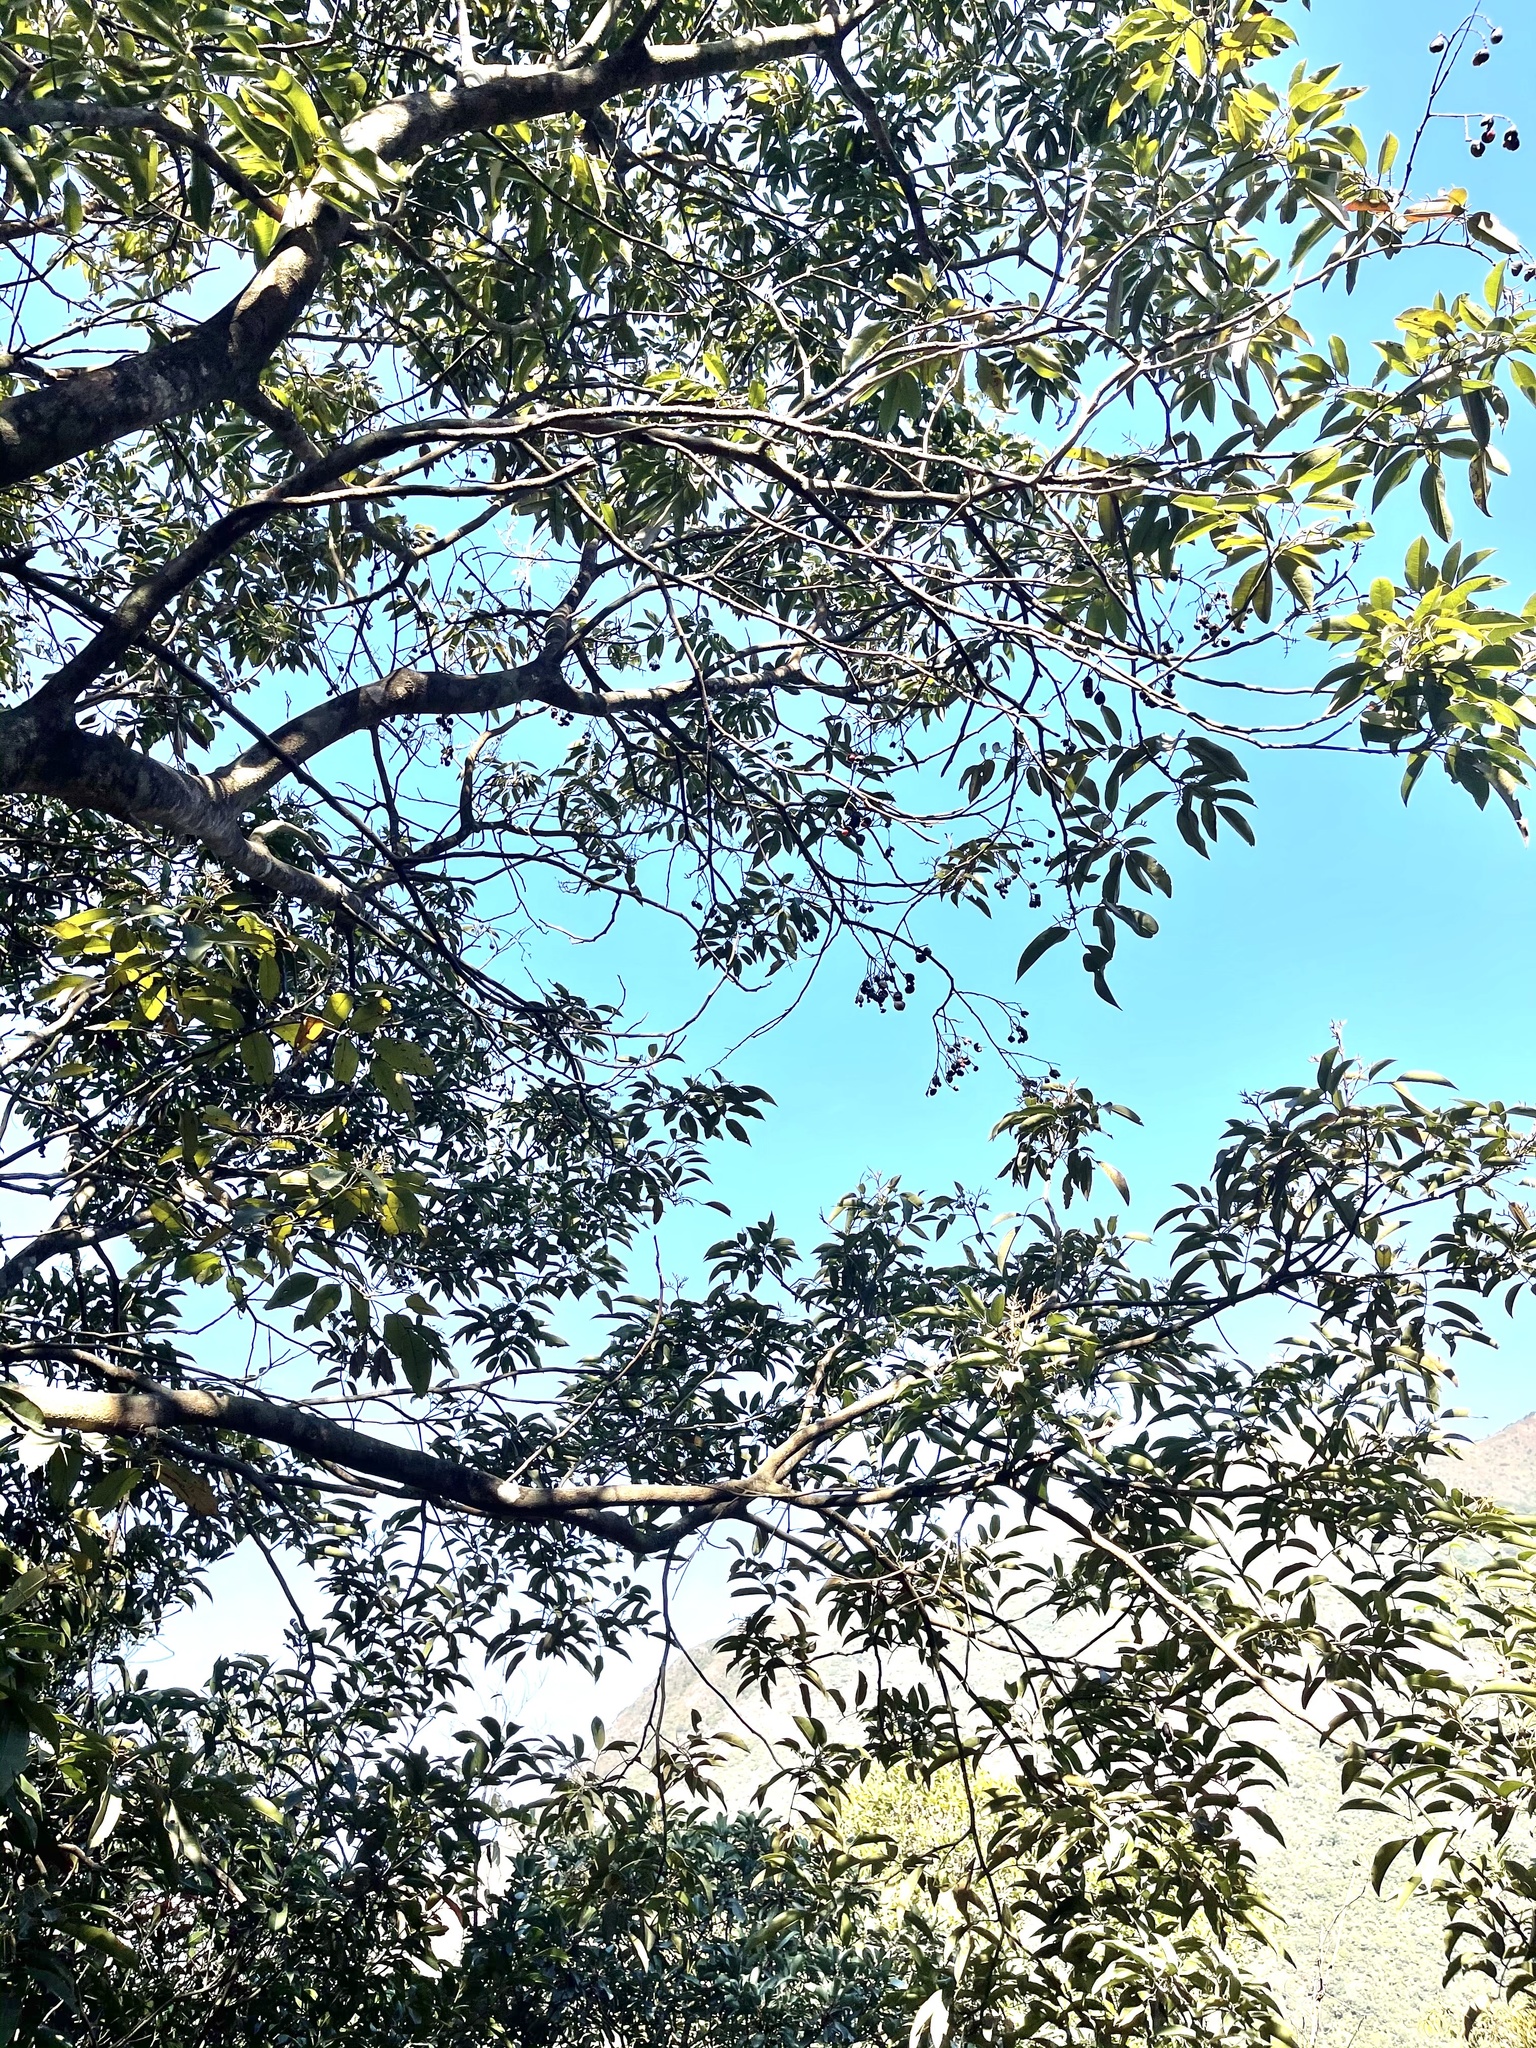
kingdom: Plantae
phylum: Tracheophyta
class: Magnoliopsida
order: Fabales
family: Fabaceae
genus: Ormosia
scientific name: Ormosia semicastrata
